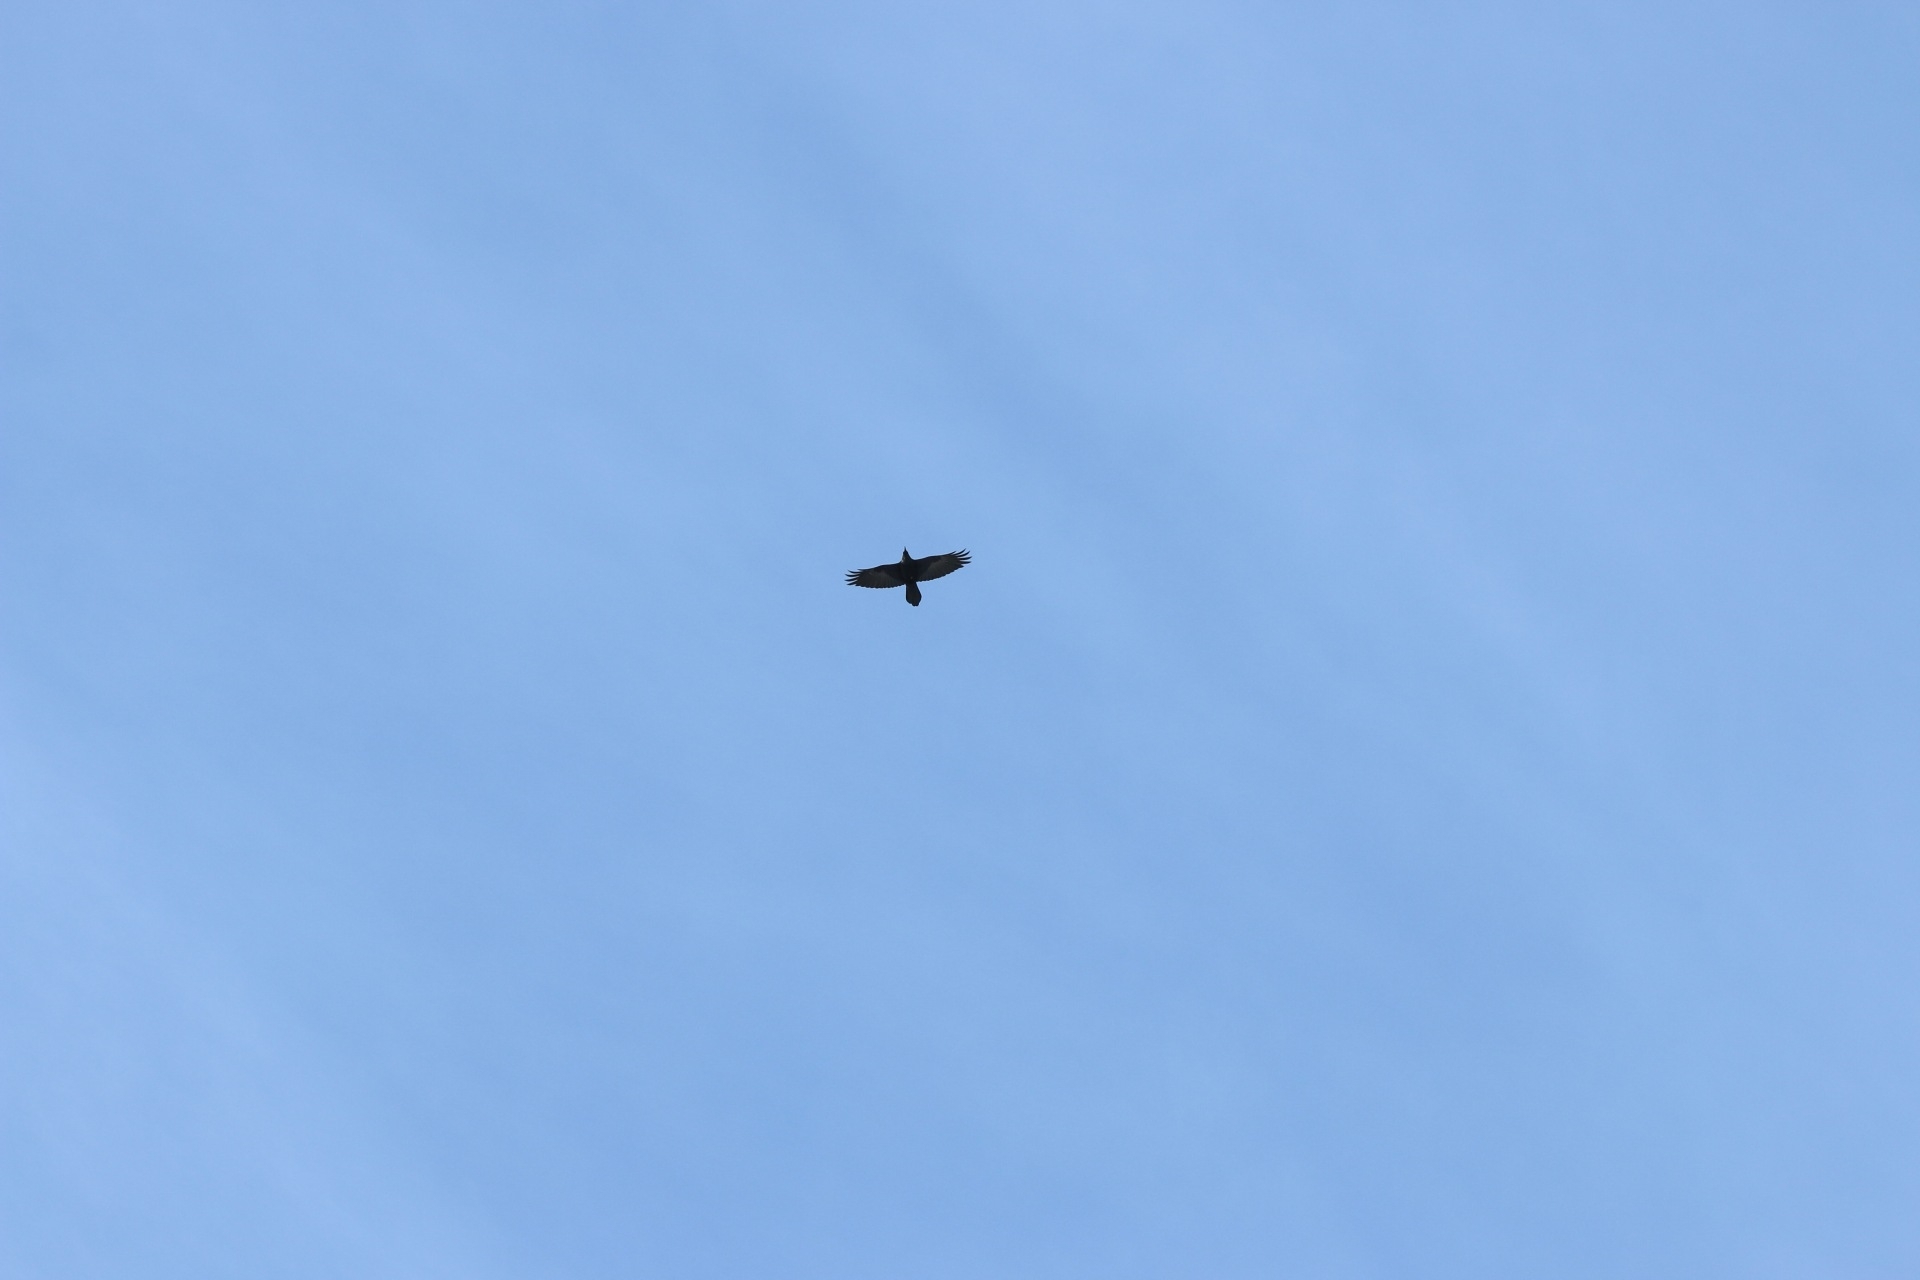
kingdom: Animalia
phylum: Chordata
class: Aves
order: Passeriformes
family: Corvidae
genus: Corvus
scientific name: Corvus corax
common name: Common raven
